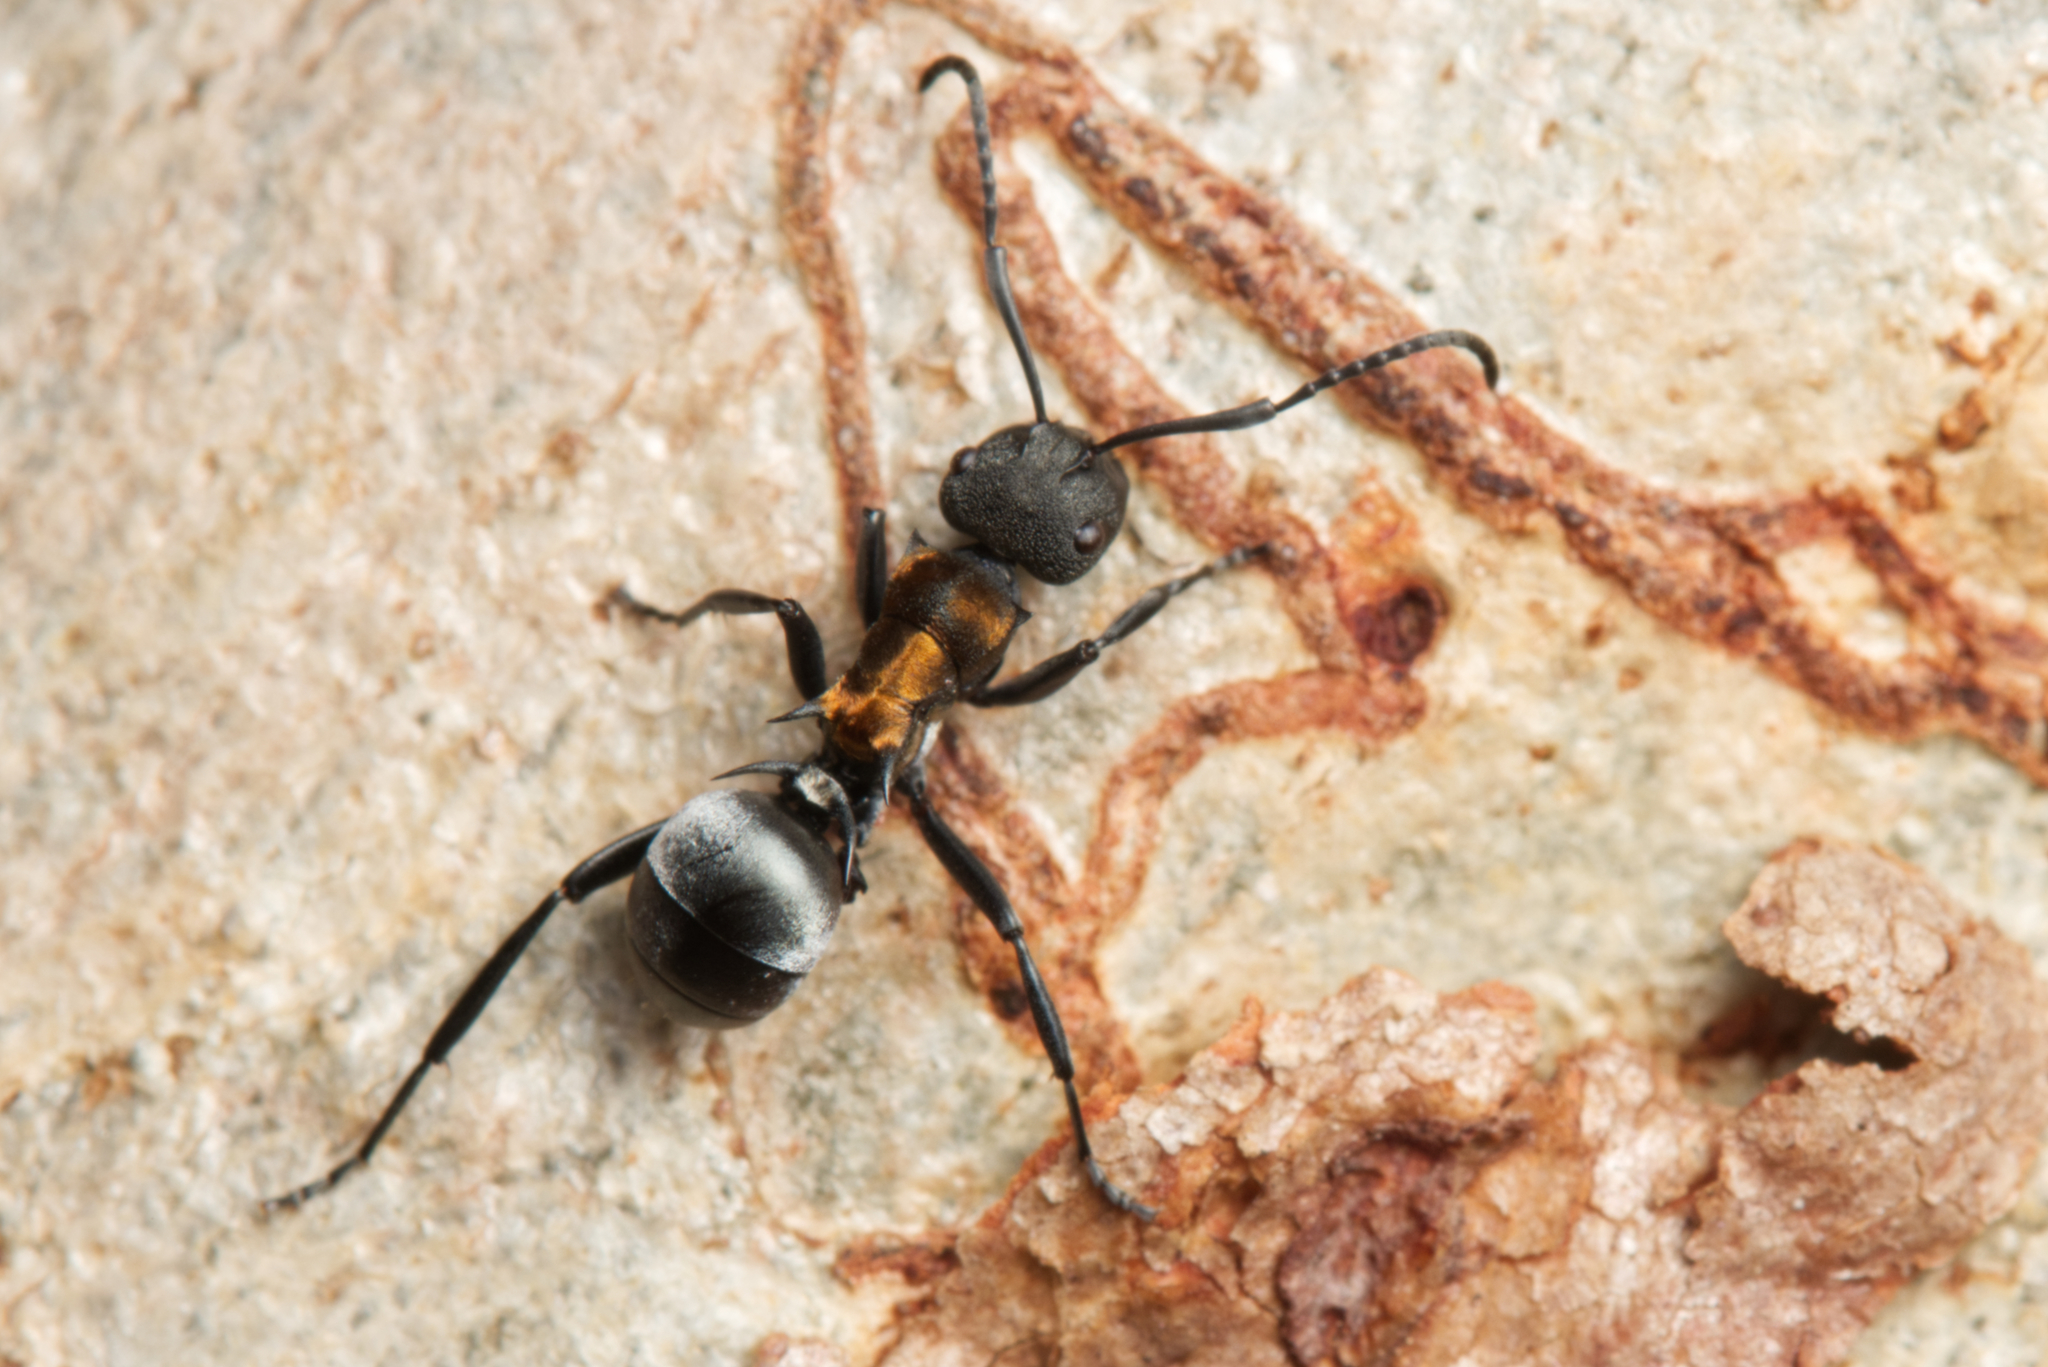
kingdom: Animalia
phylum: Arthropoda
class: Insecta
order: Hymenoptera
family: Formicidae
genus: Polyrhachis
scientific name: Polyrhachis ornata
